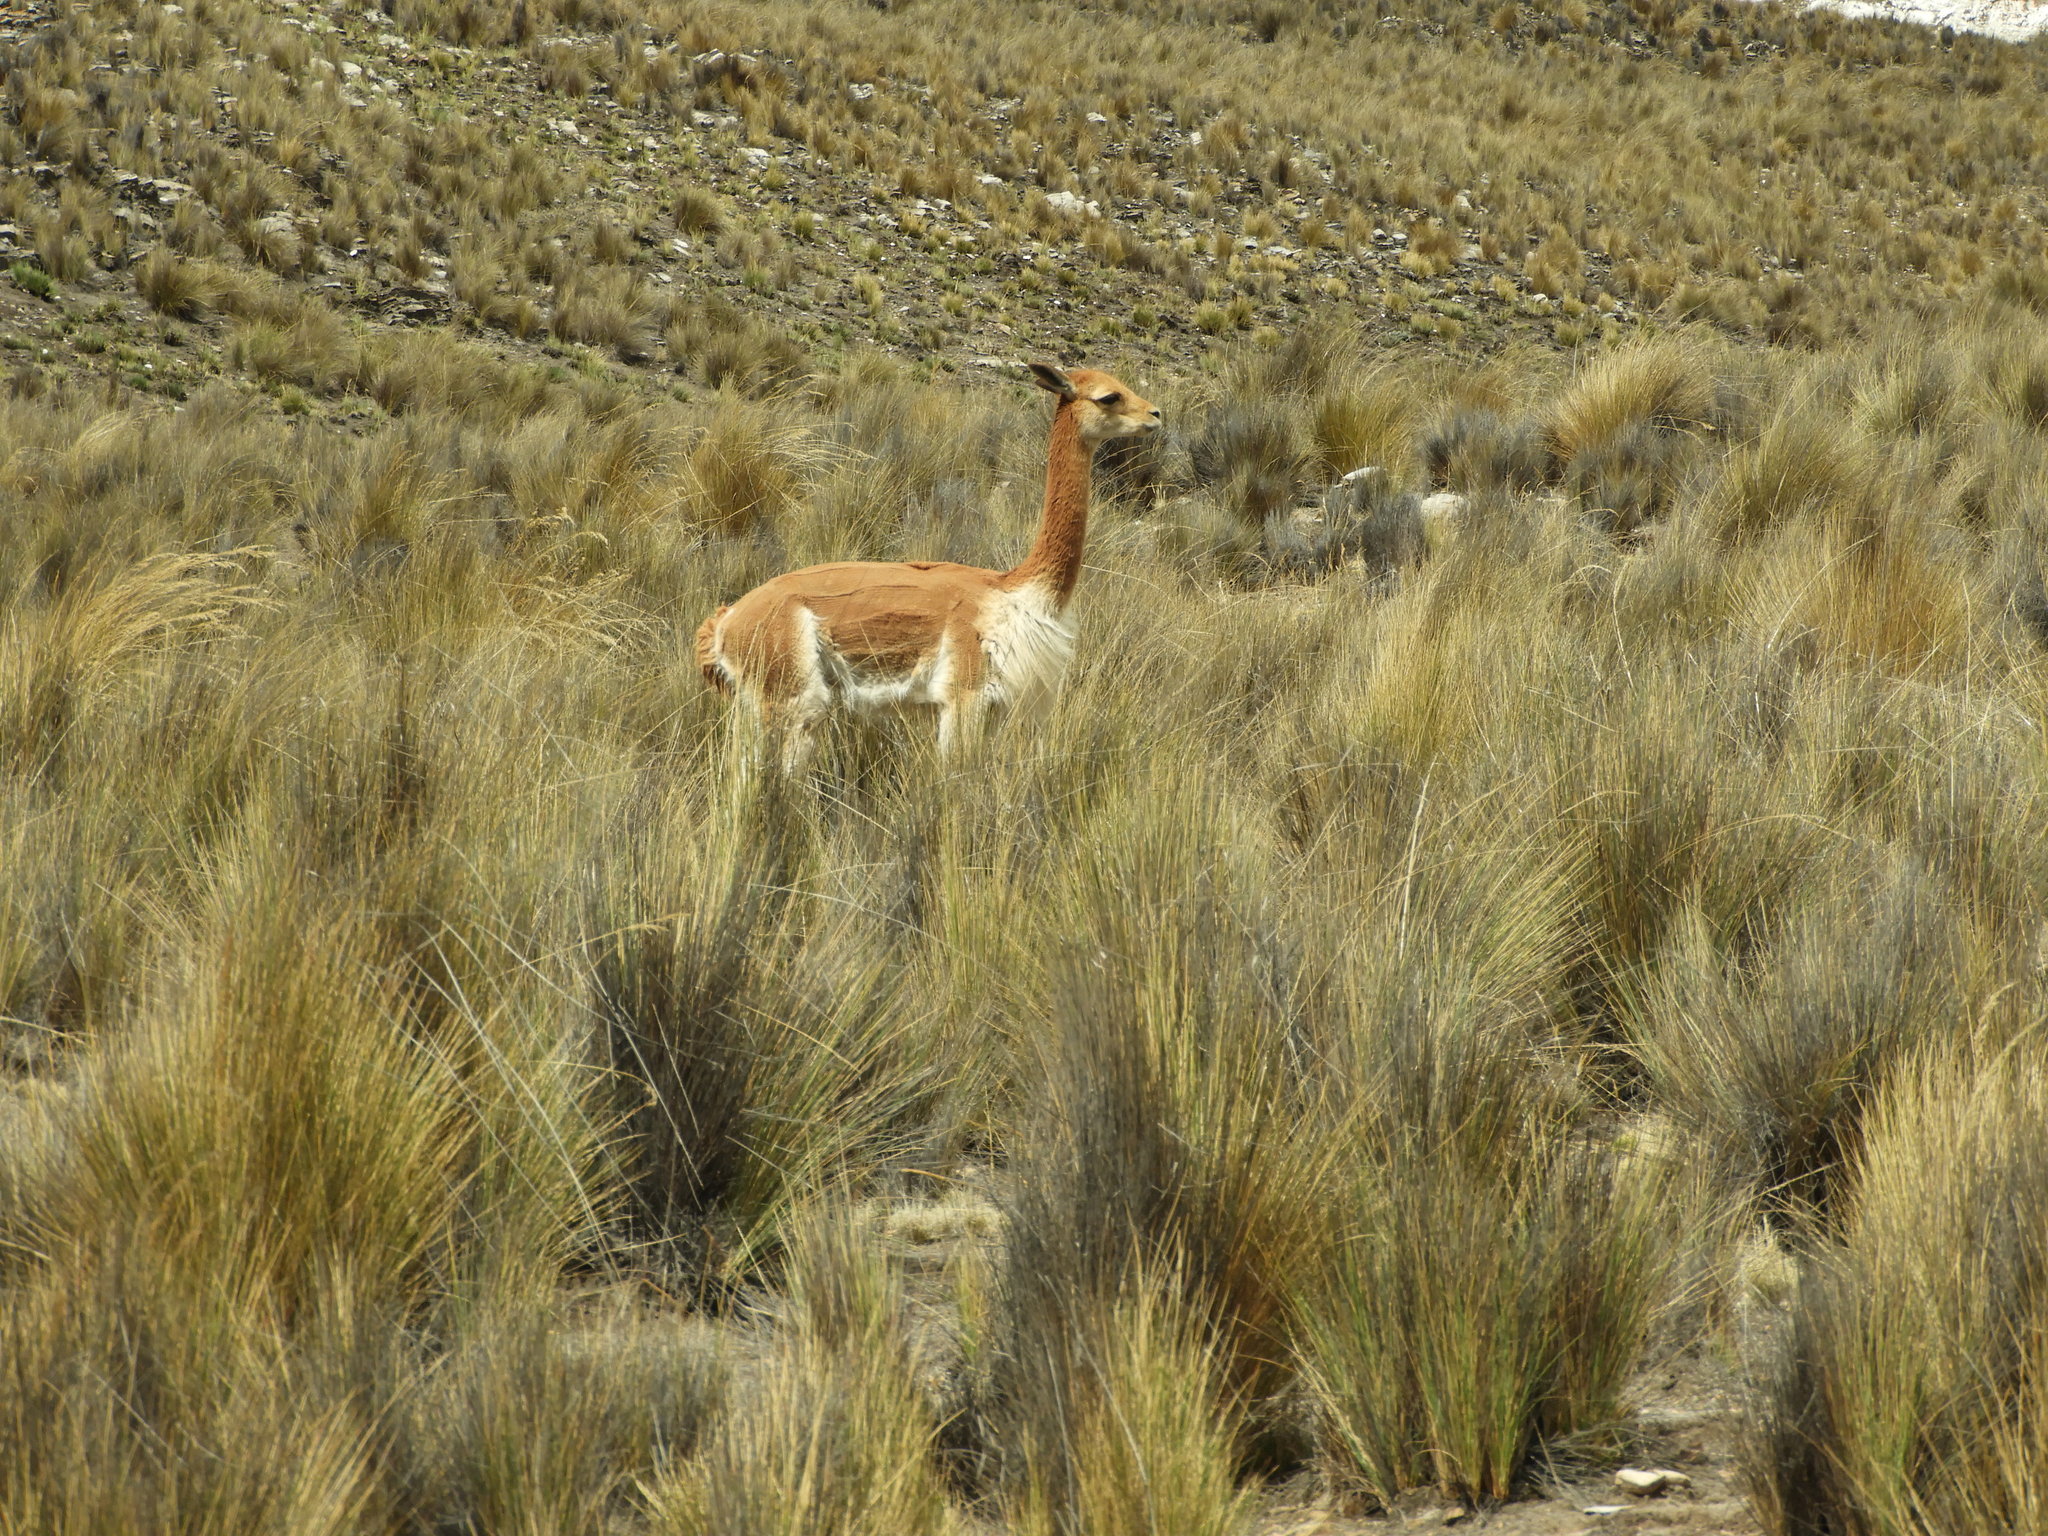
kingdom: Animalia
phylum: Chordata
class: Mammalia
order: Artiodactyla
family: Camelidae
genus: Vicugna
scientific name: Vicugna vicugna
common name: Vicugna
